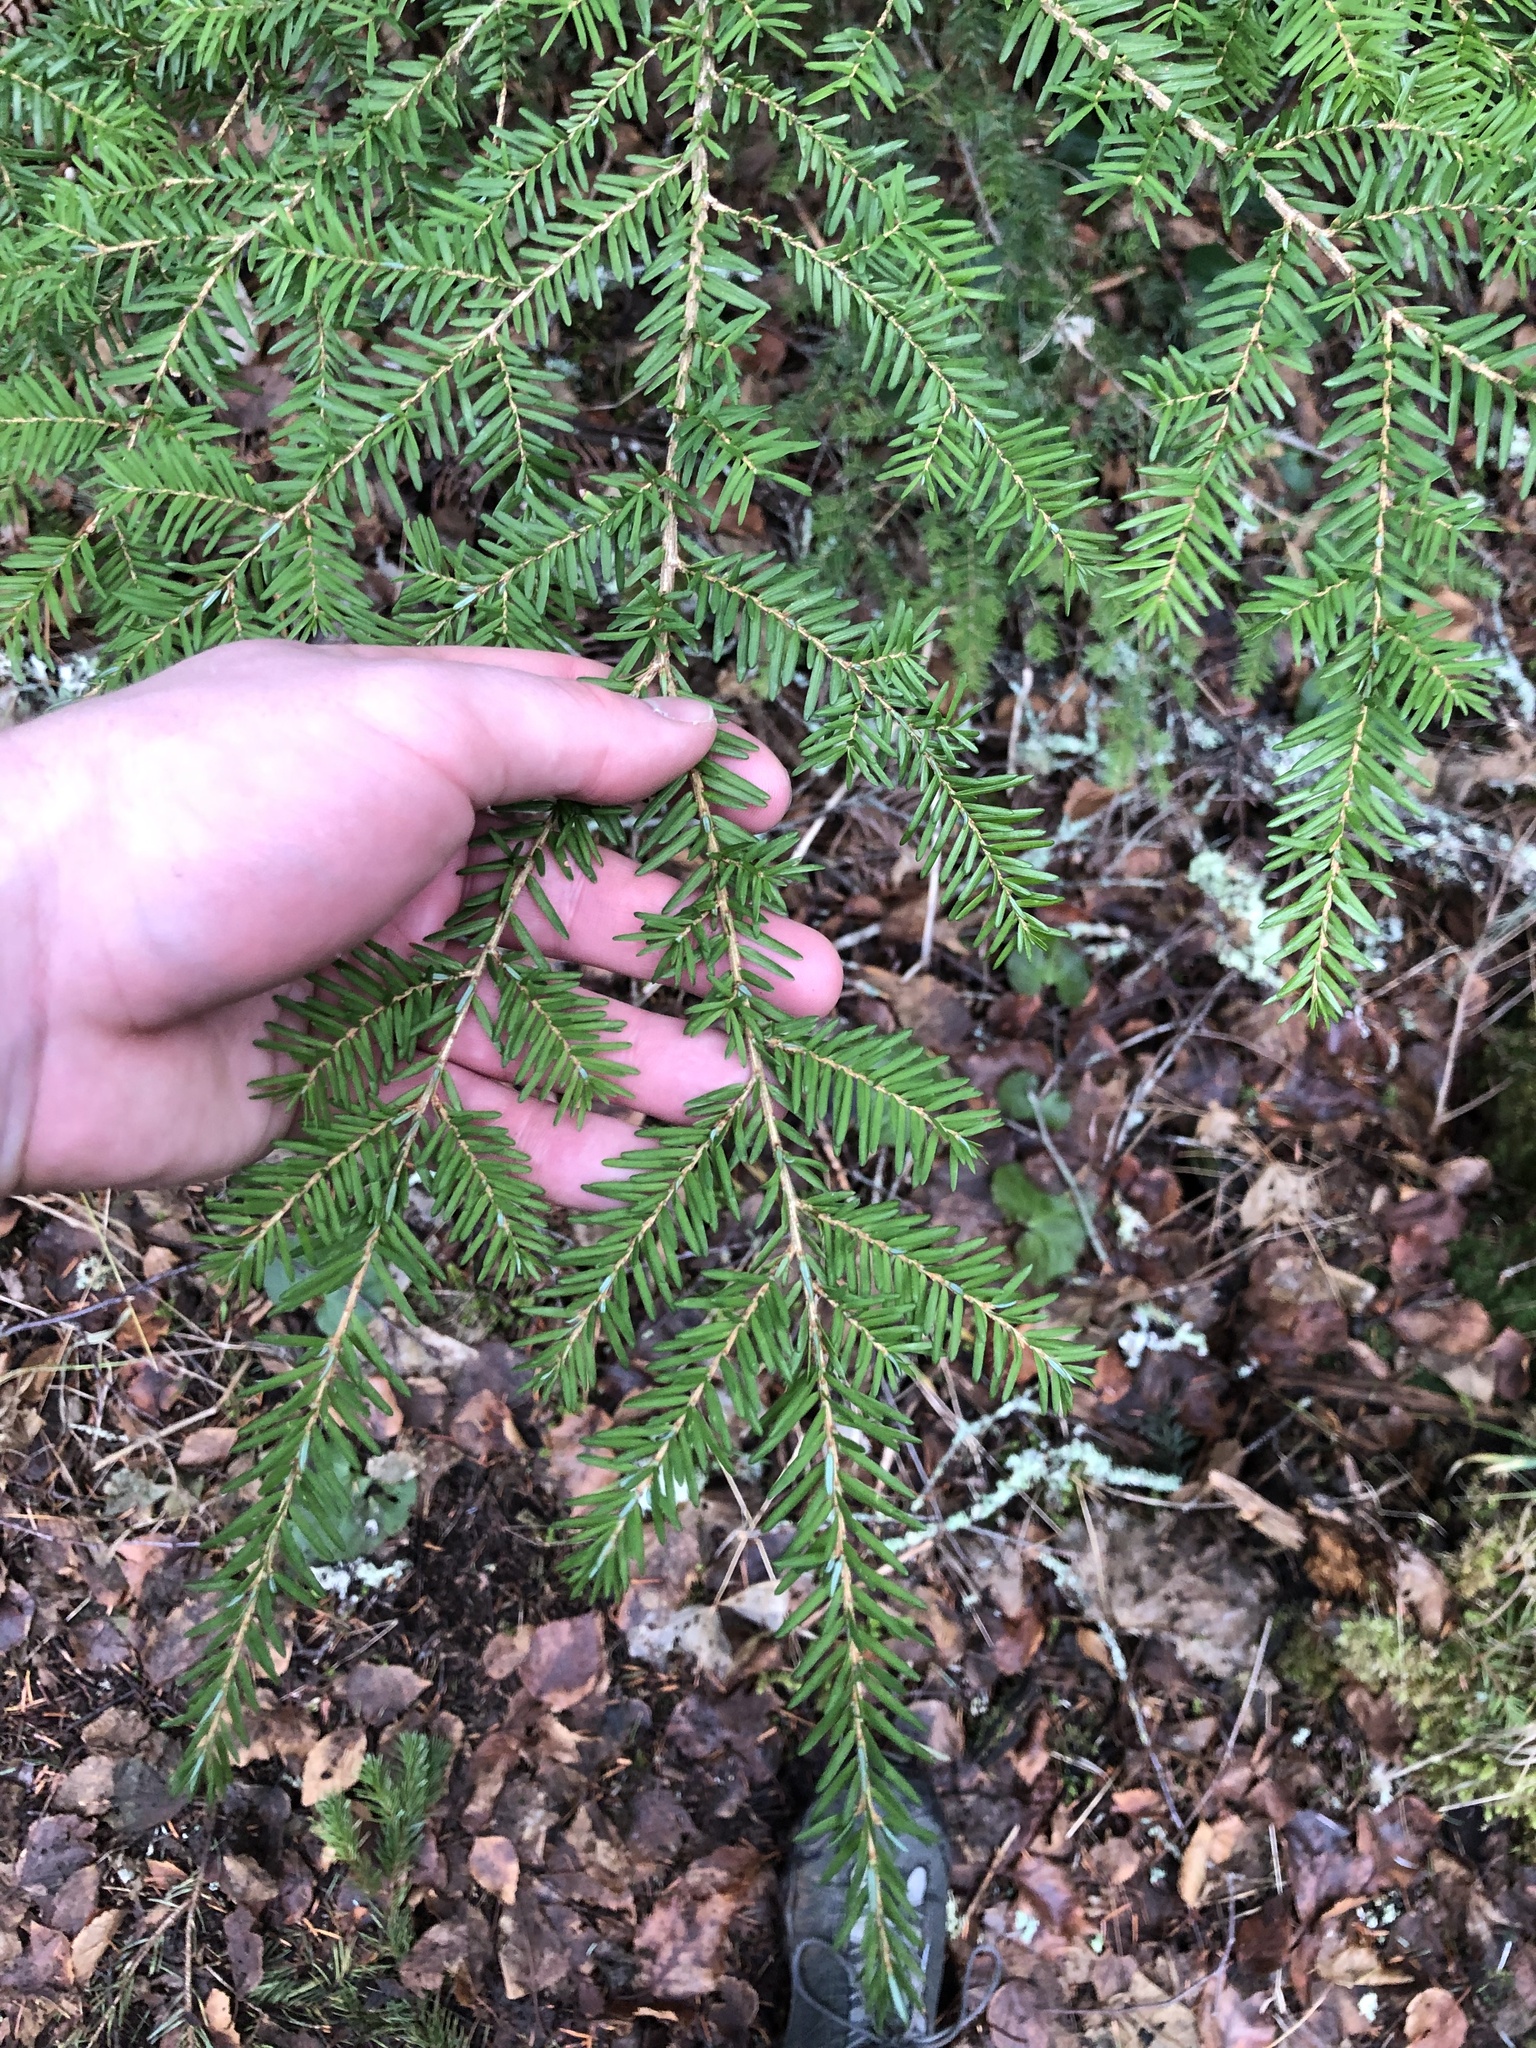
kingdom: Plantae
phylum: Tracheophyta
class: Pinopsida
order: Pinales
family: Pinaceae
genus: Tsuga
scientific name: Tsuga heterophylla
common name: Western hemlock
